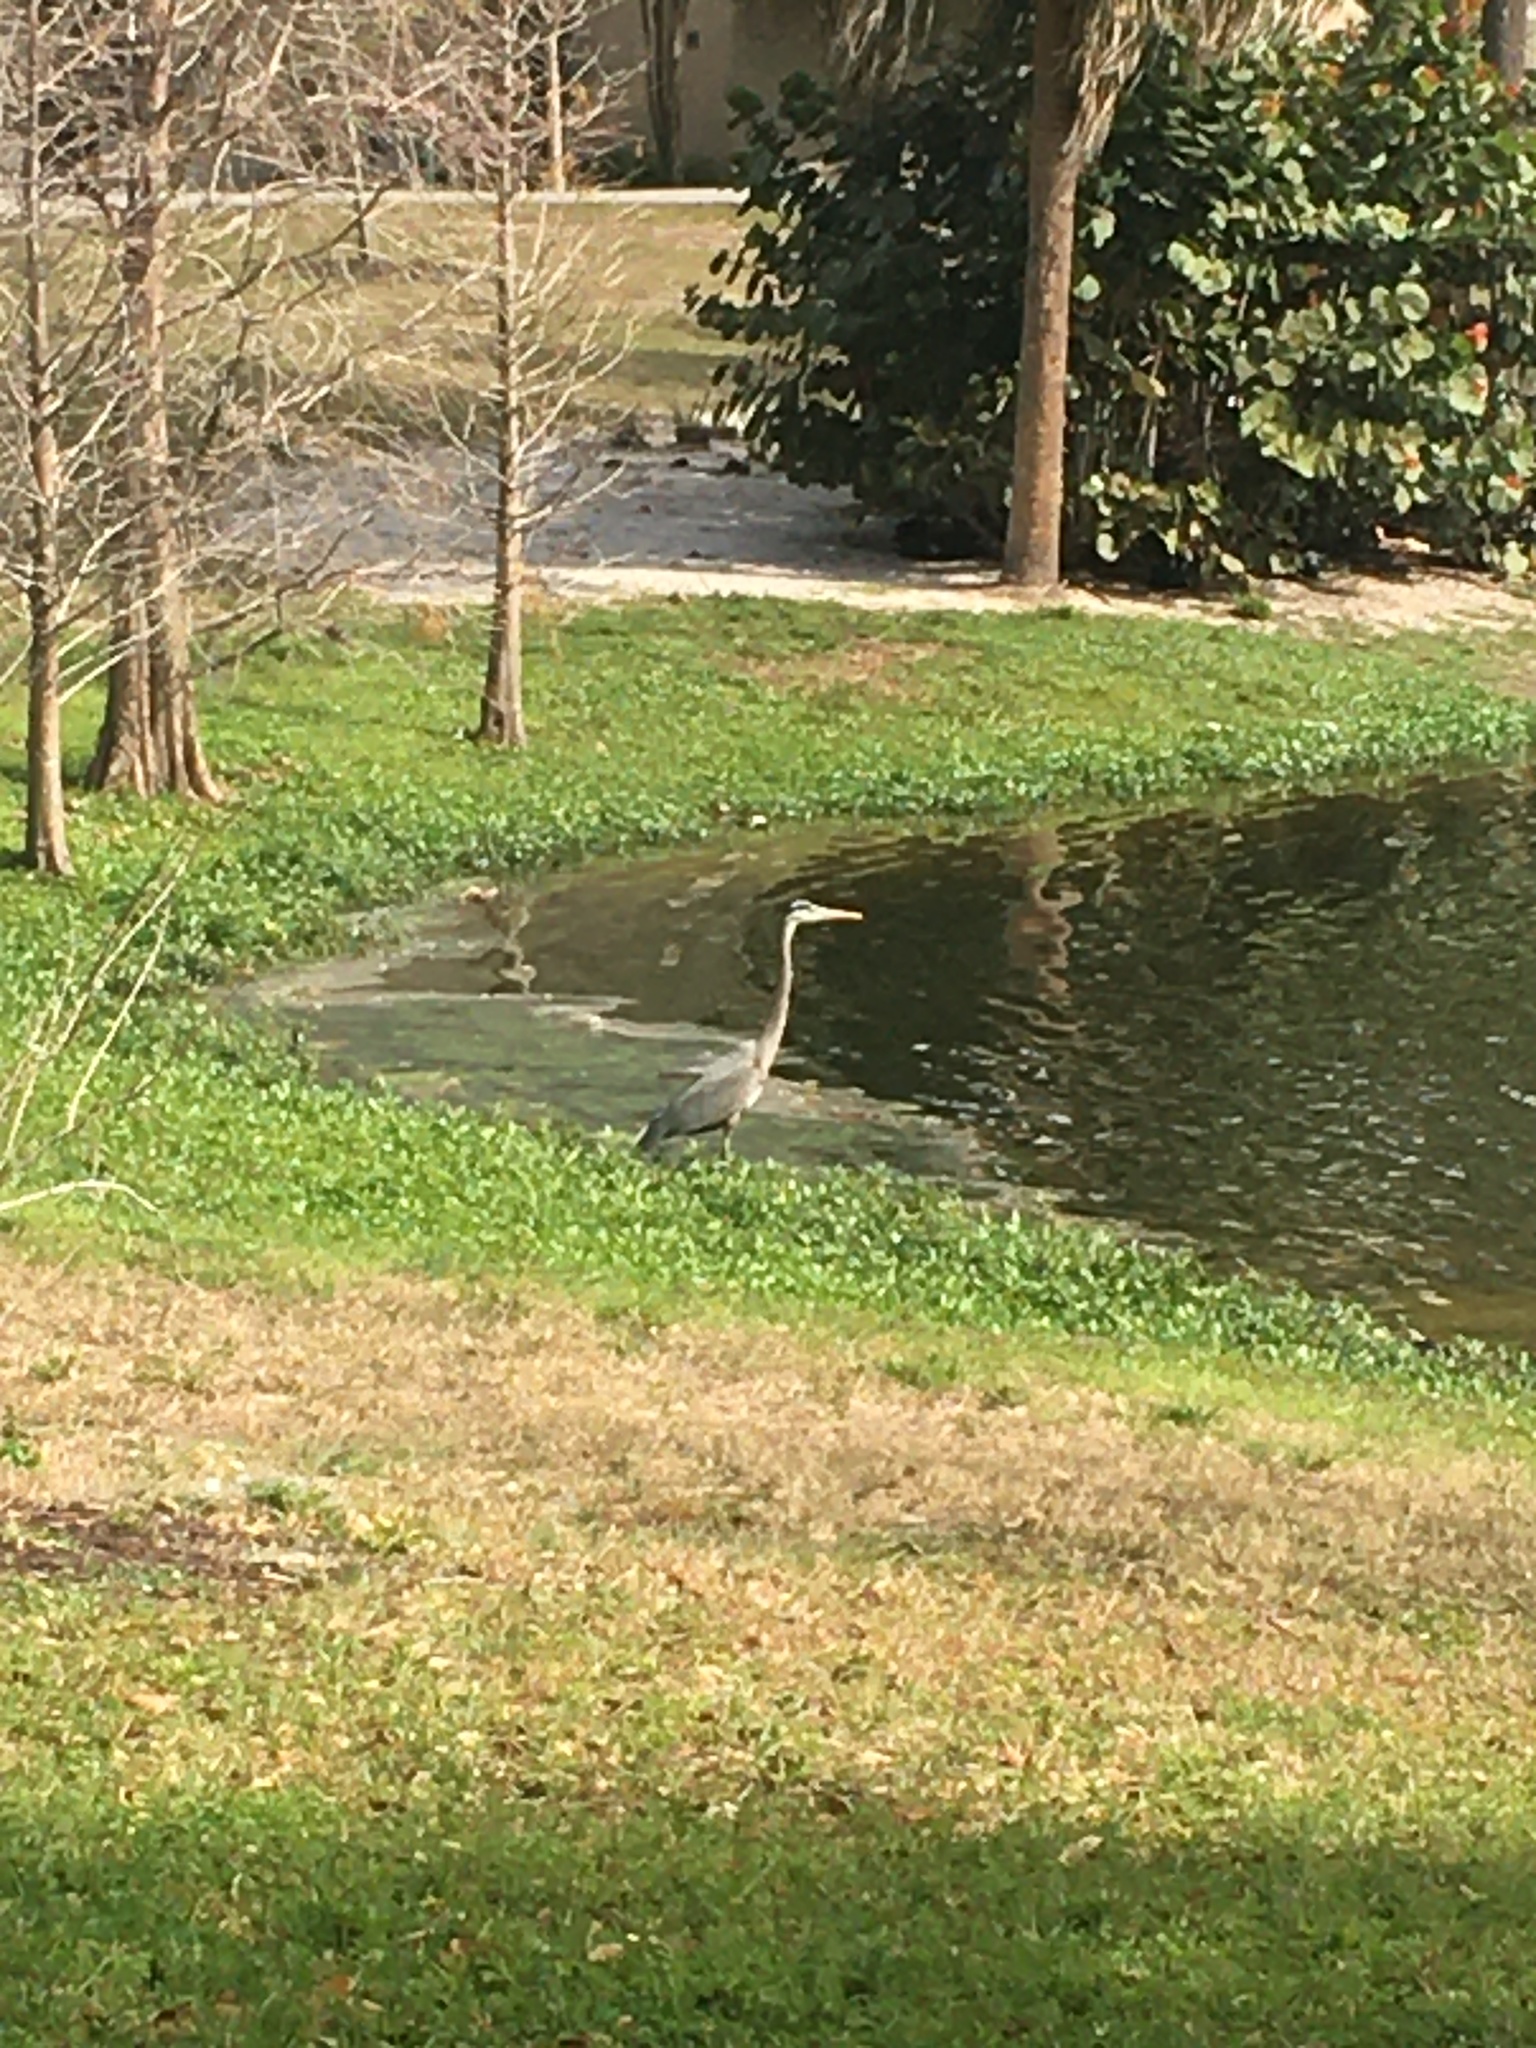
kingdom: Animalia
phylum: Chordata
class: Aves
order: Pelecaniformes
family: Ardeidae
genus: Ardea
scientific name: Ardea herodias
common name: Great blue heron
